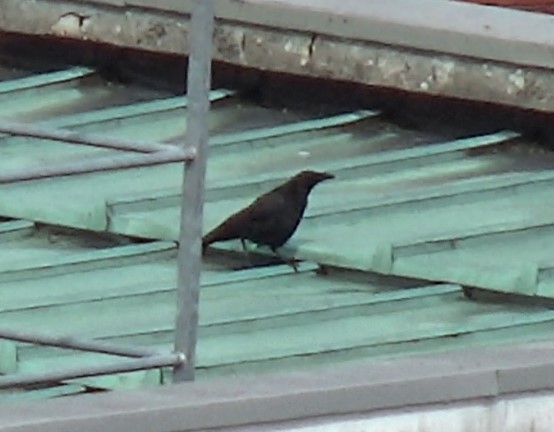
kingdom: Animalia
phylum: Chordata
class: Aves
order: Passeriformes
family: Corvidae
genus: Corvus
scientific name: Corvus corone
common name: Carrion crow
